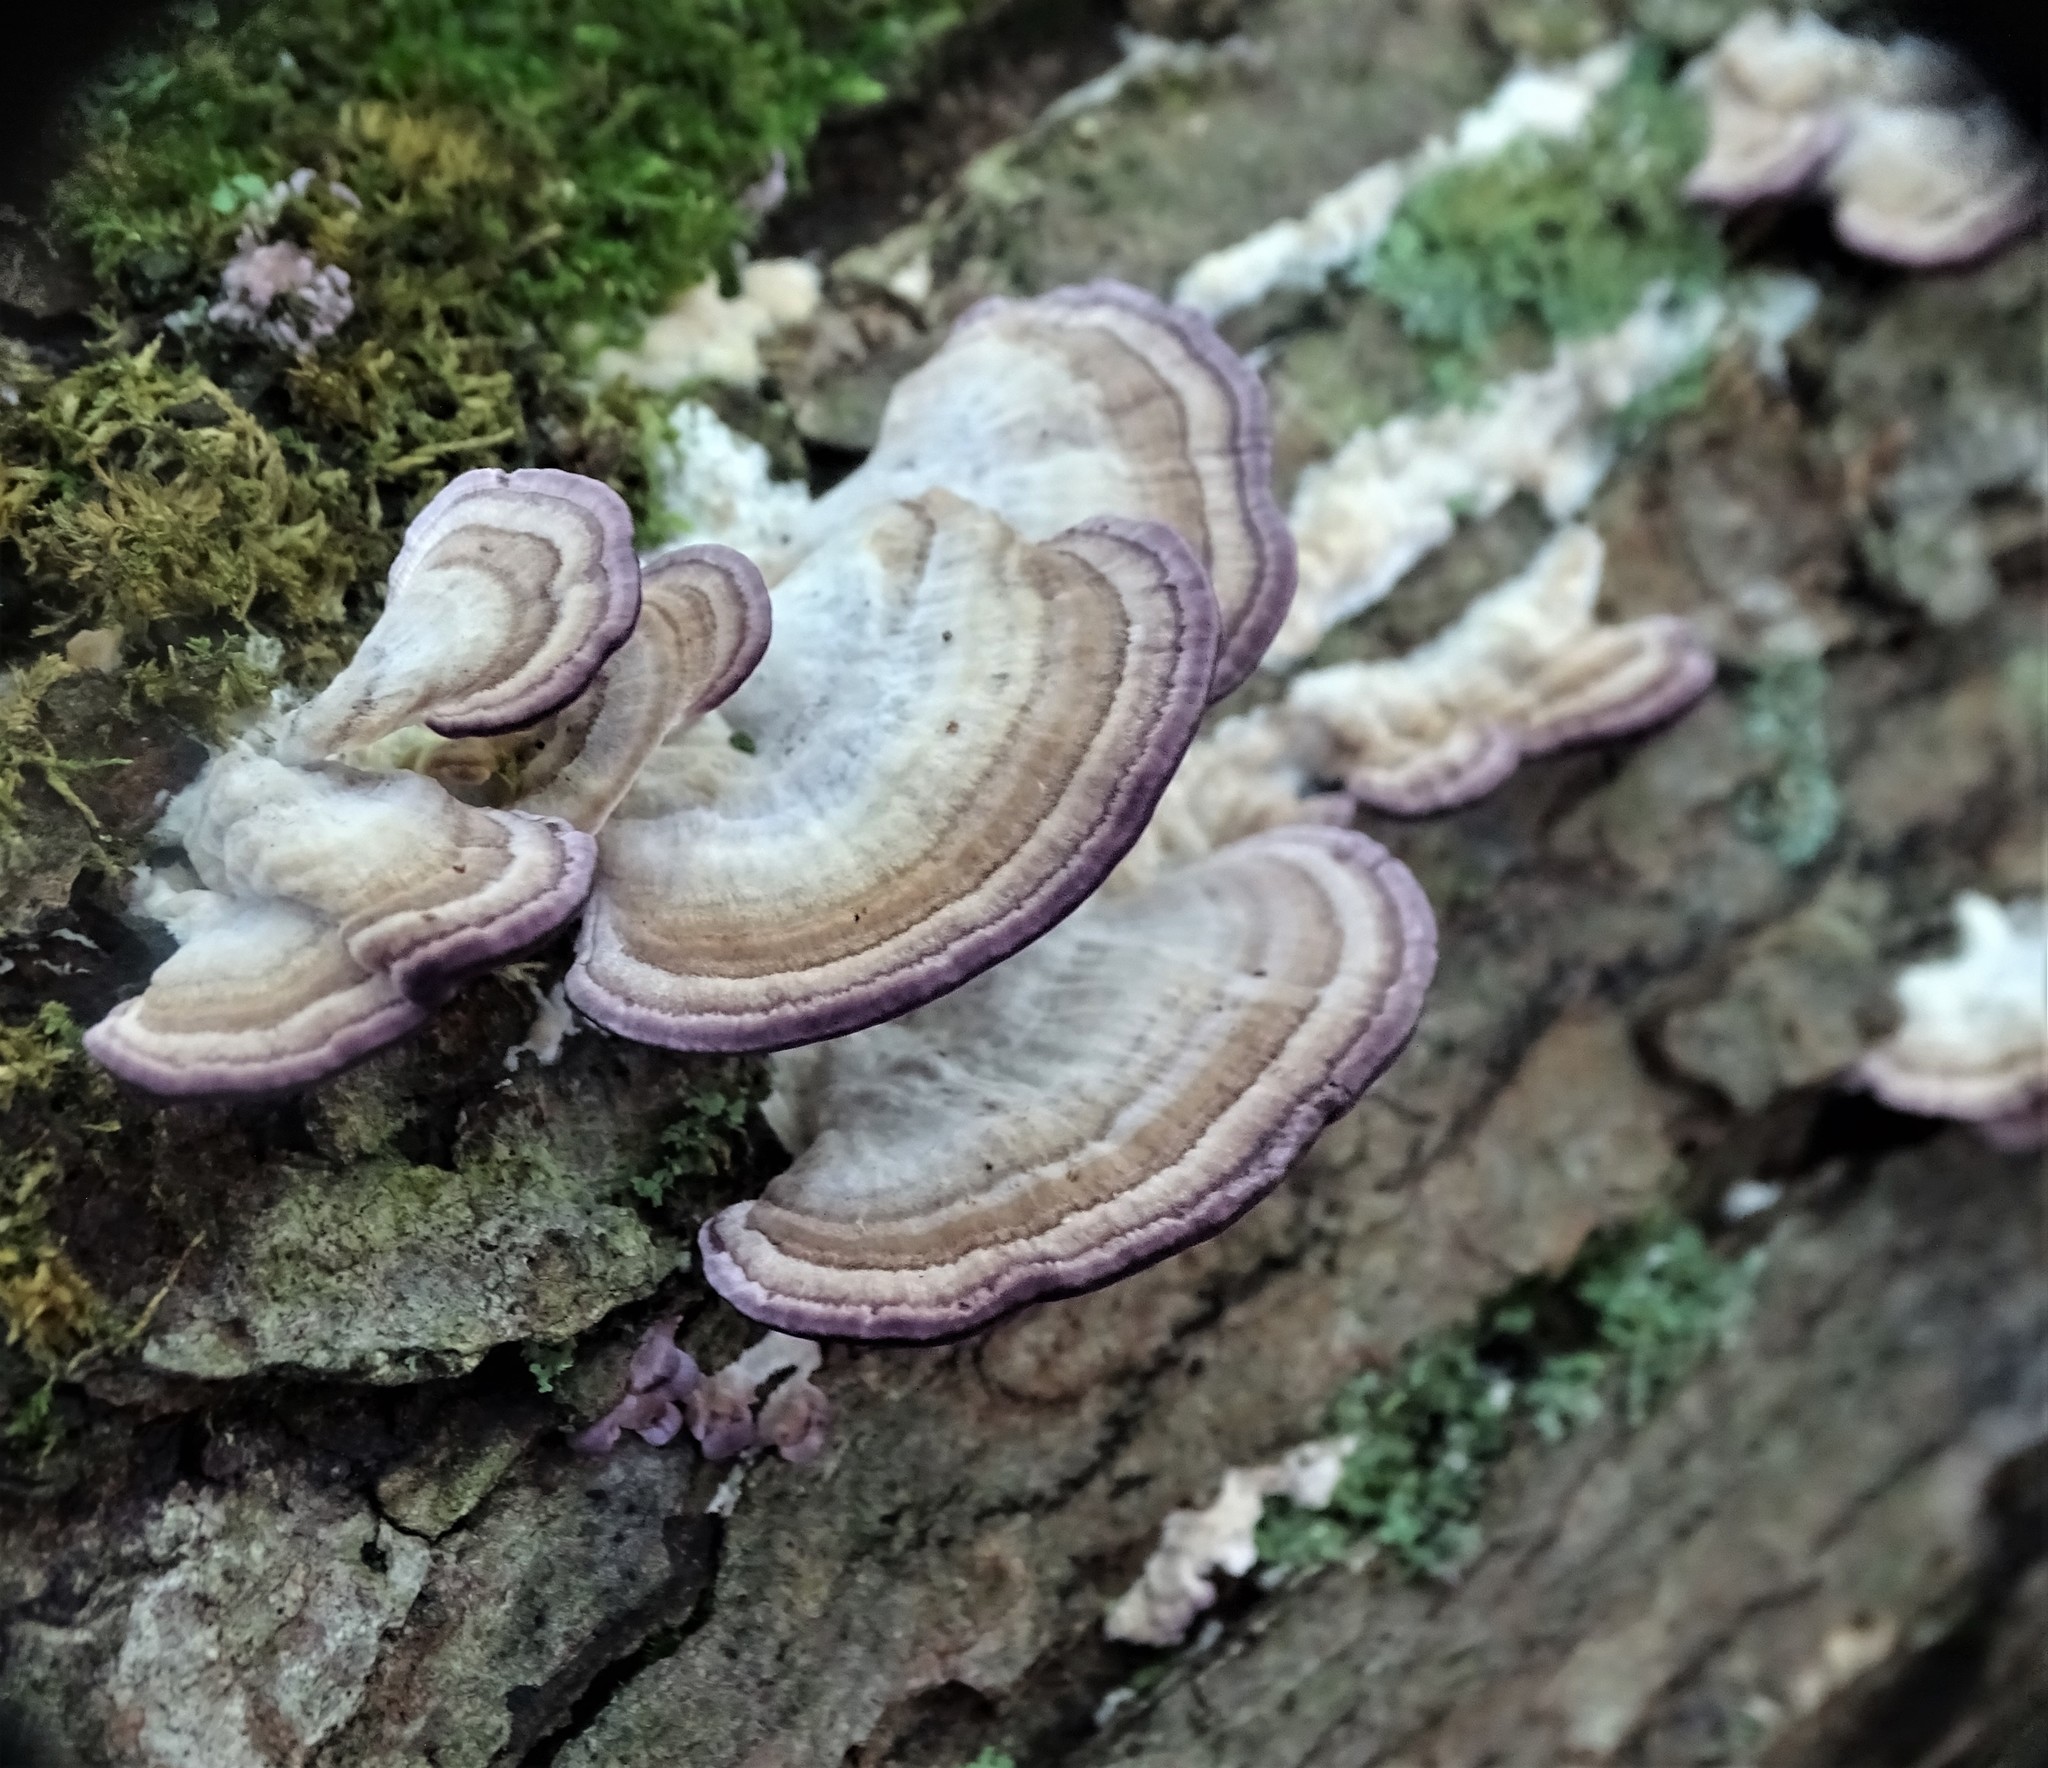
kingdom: Fungi
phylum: Basidiomycota
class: Agaricomycetes
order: Hymenochaetales
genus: Trichaptum
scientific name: Trichaptum biforme
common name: Violet-toothed polypore
